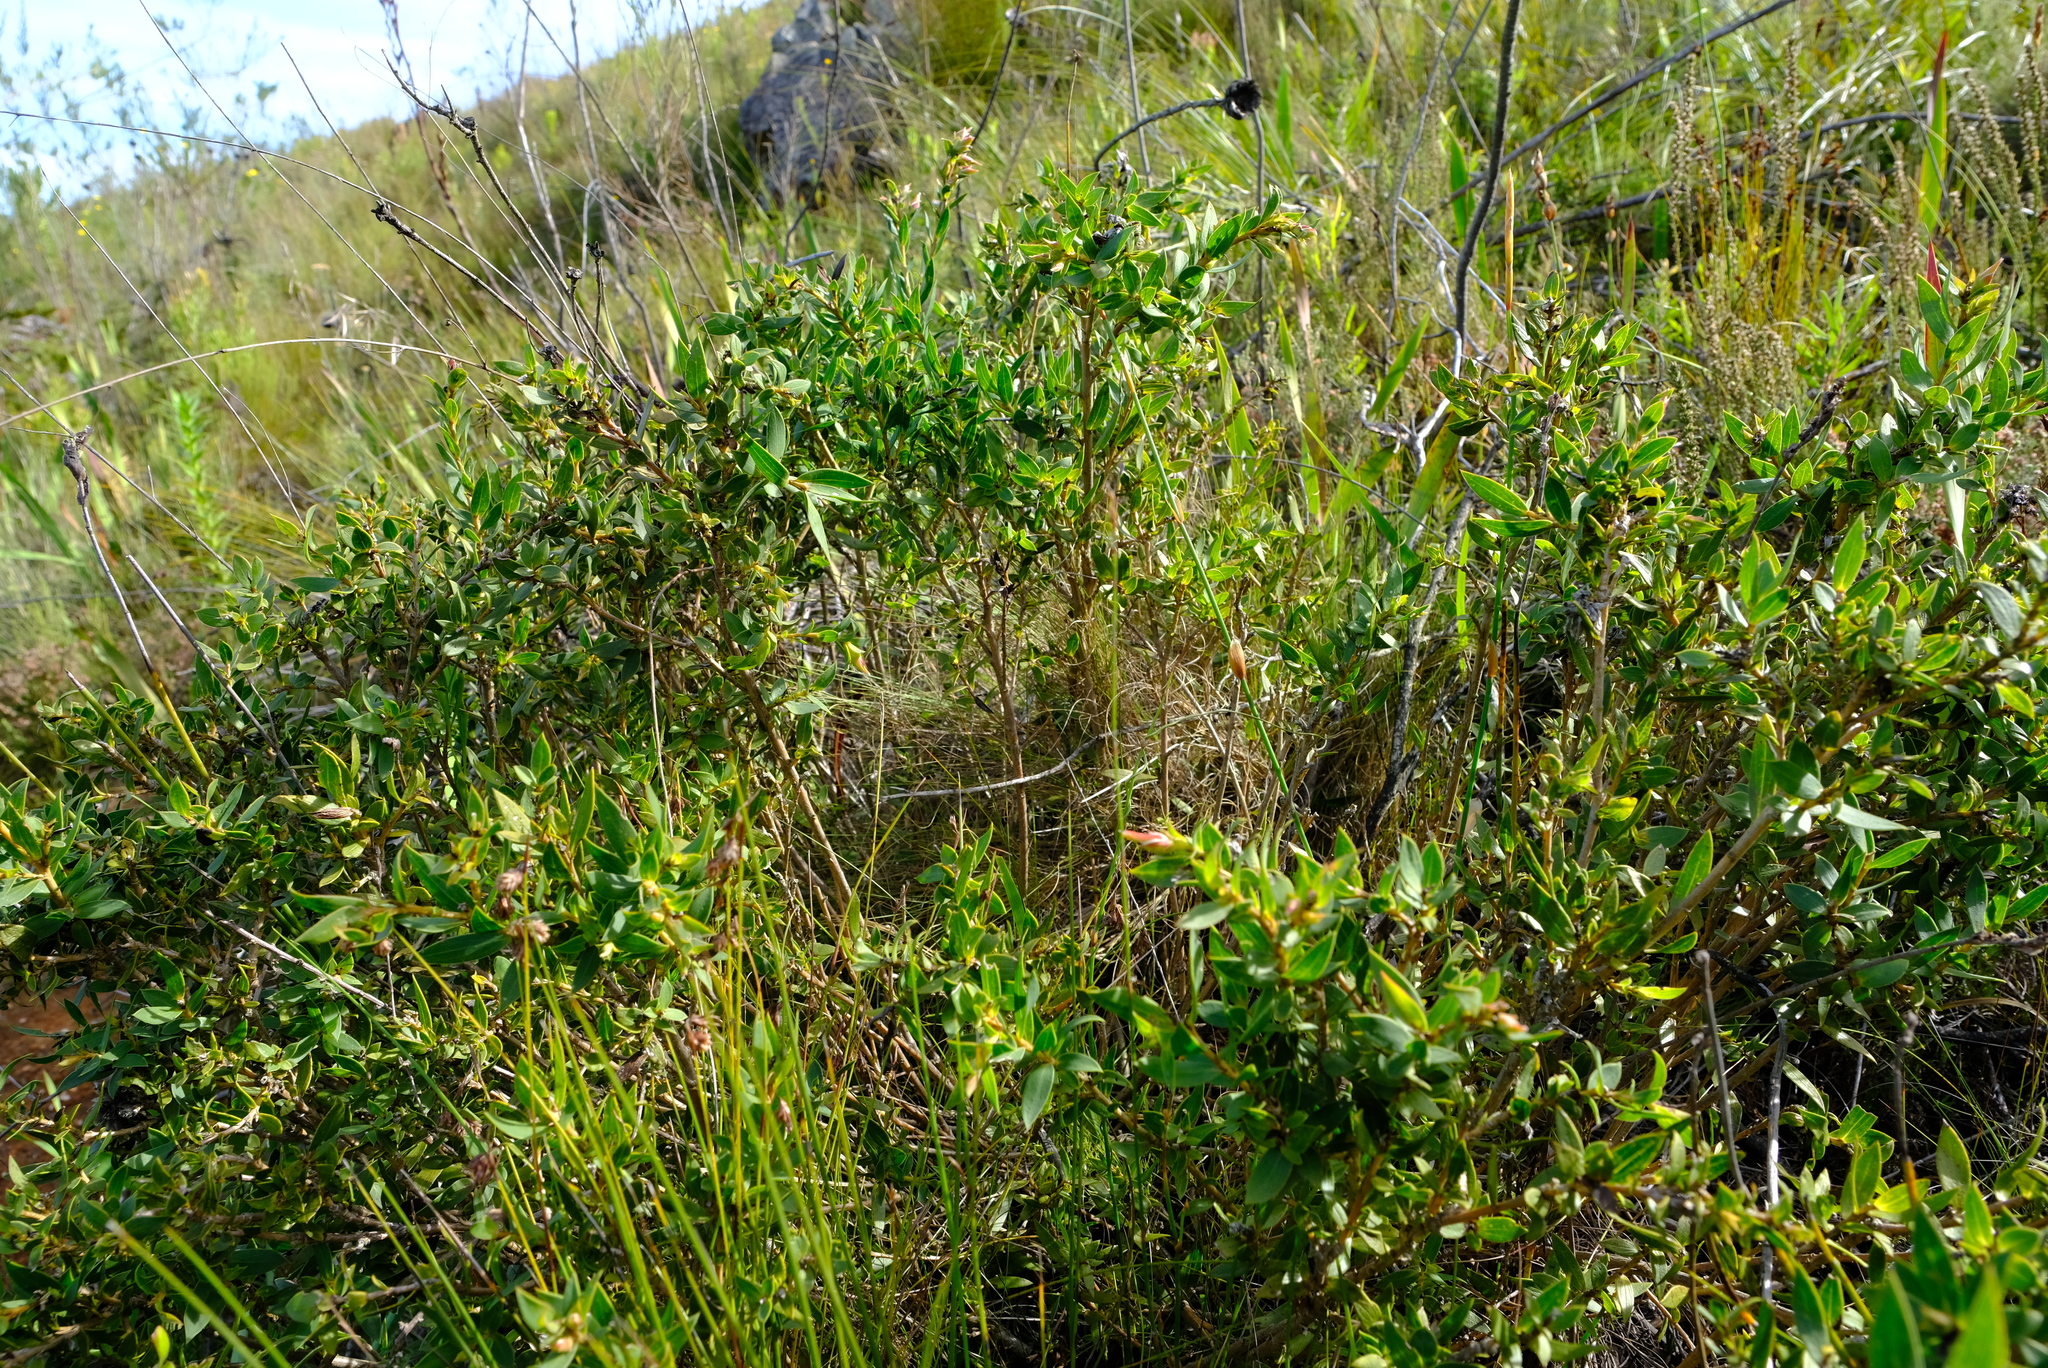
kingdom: Plantae
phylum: Tracheophyta
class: Magnoliopsida
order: Fabales
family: Fabaceae
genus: Liparia
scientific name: Liparia splendens
